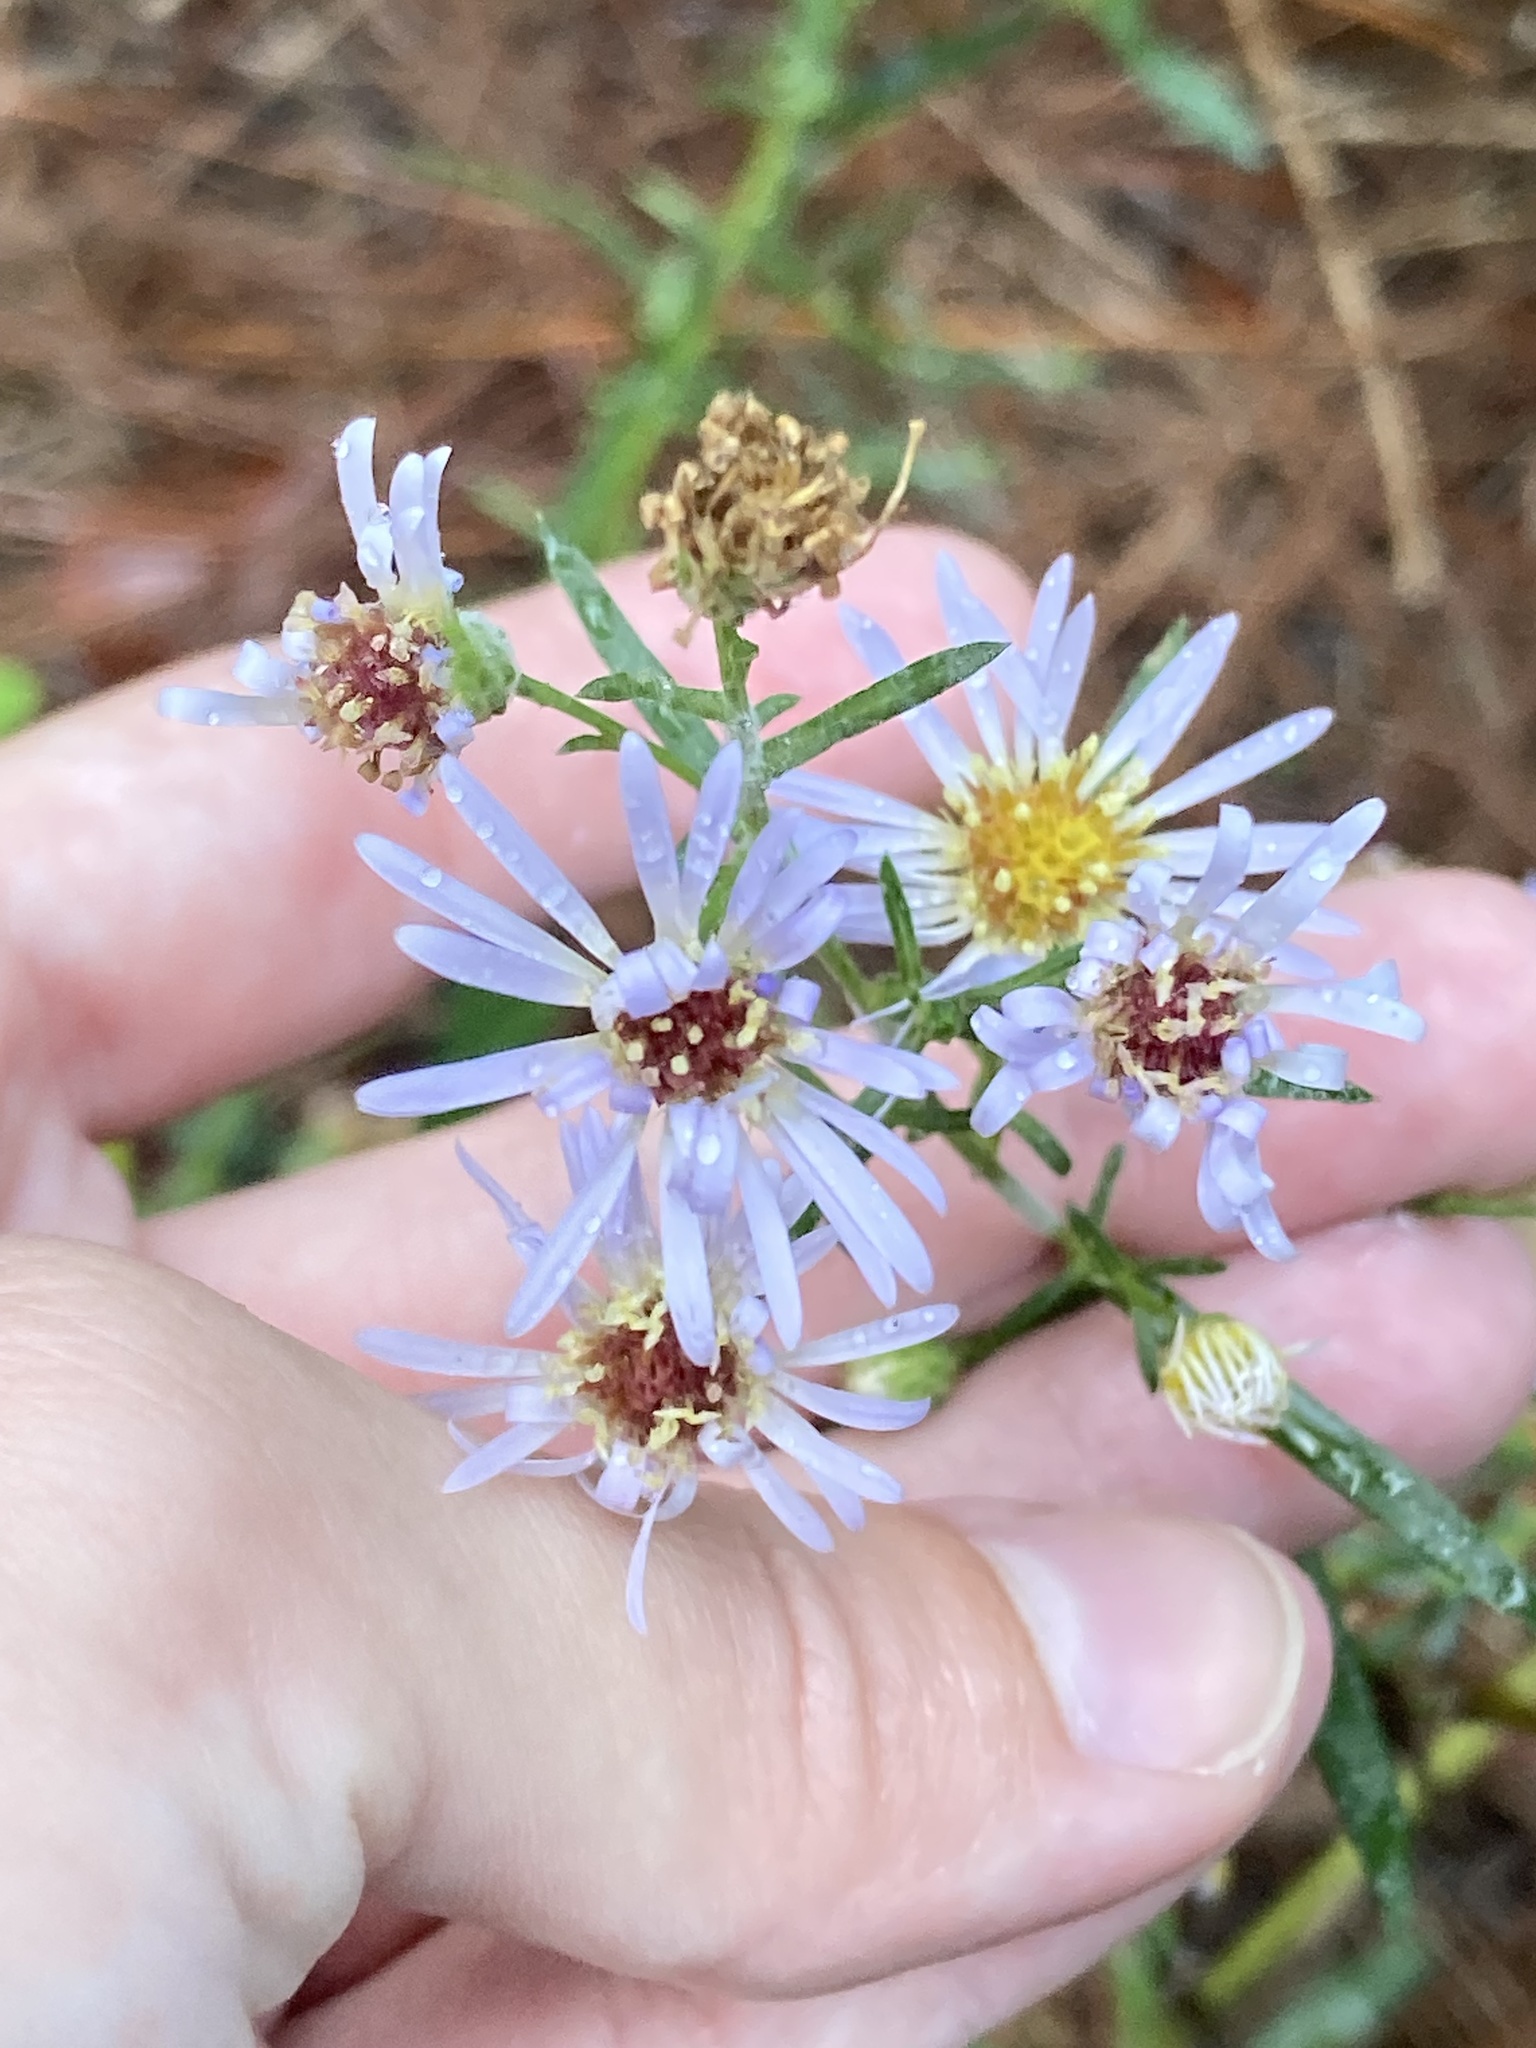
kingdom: Plantae
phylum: Tracheophyta
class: Magnoliopsida
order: Asterales
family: Asteraceae
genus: Symphyotrichum
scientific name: Symphyotrichum simmondsii
